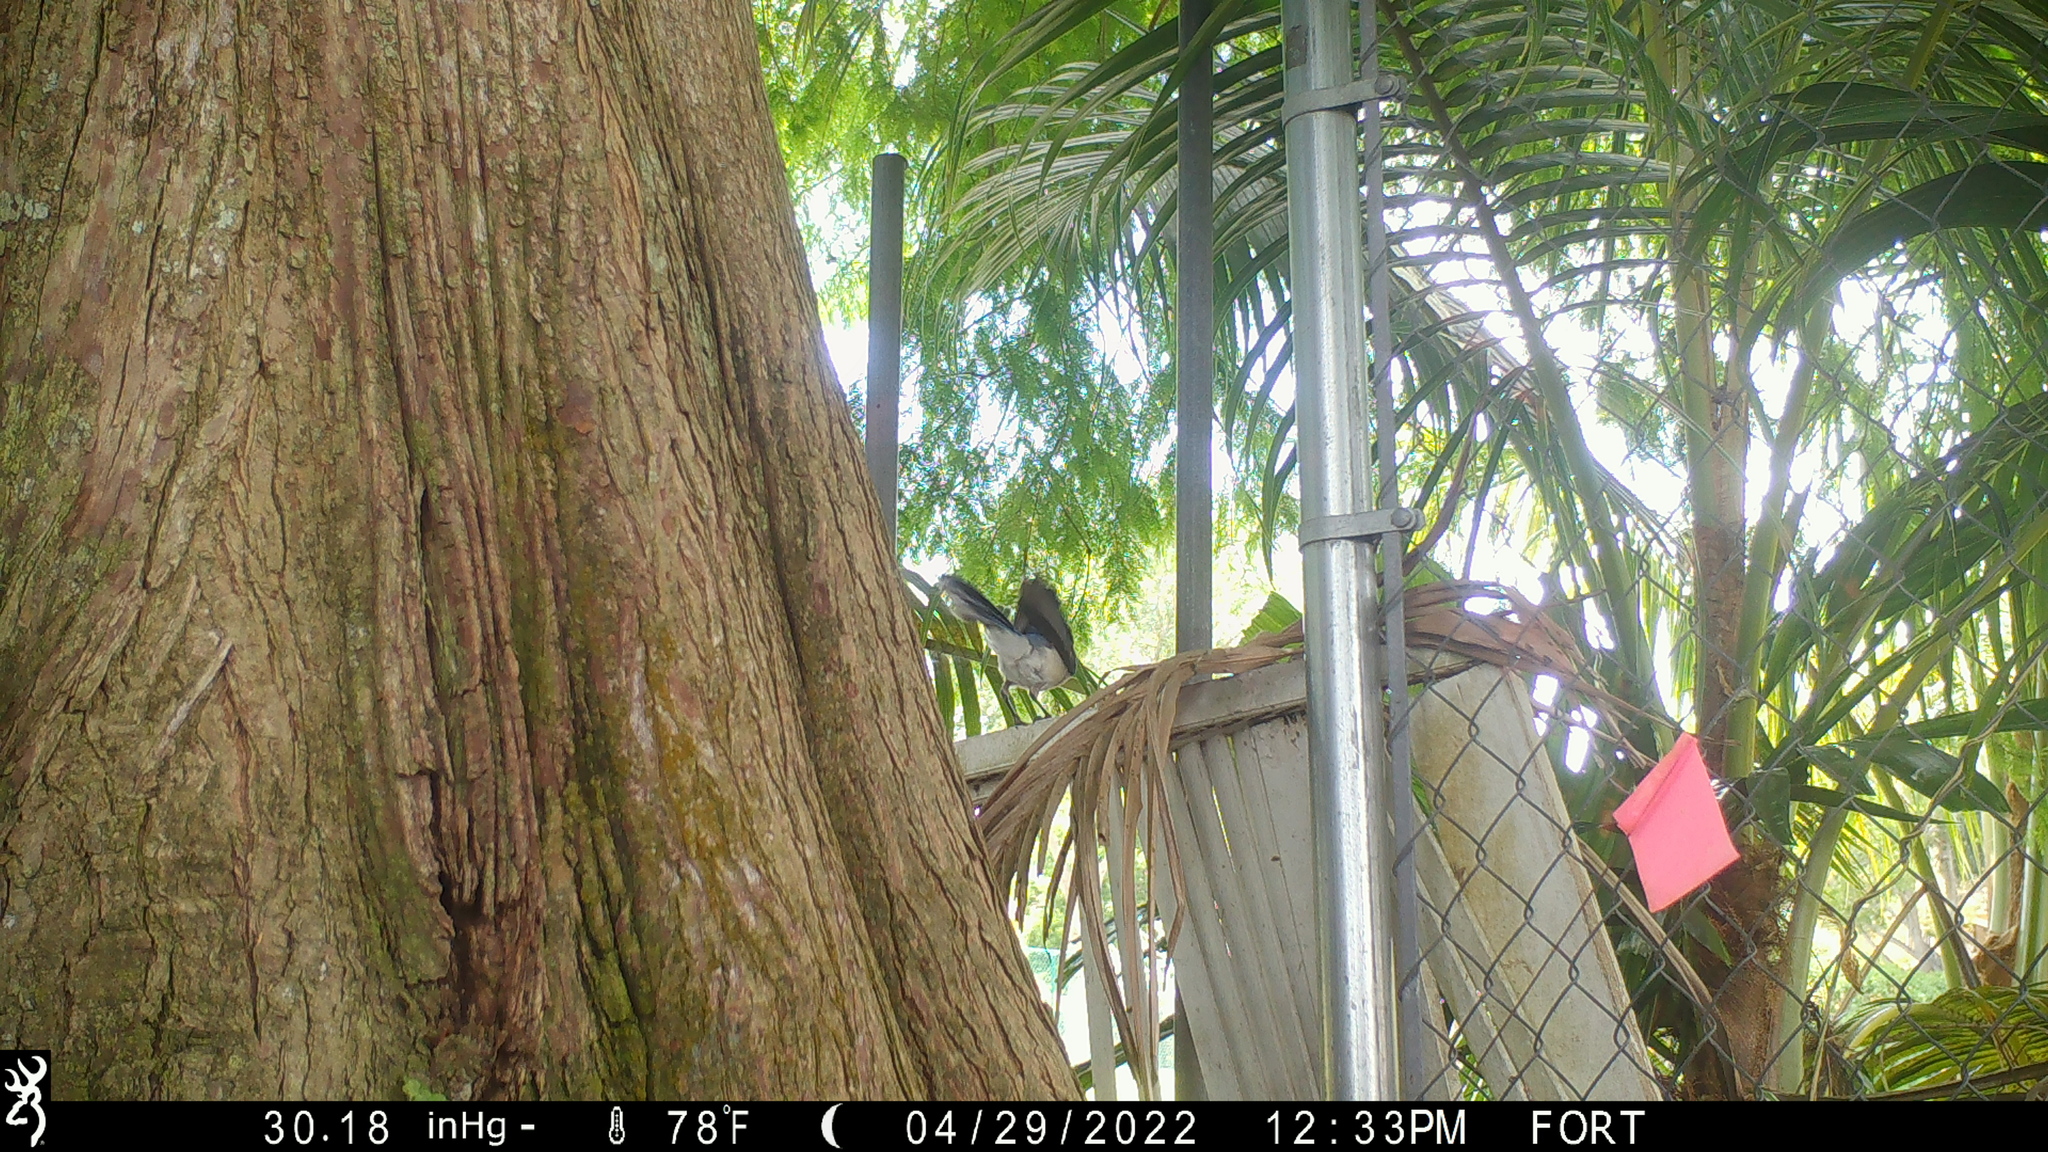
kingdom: Animalia
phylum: Chordata
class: Aves
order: Passeriformes
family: Corvidae
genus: Cyanocitta
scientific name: Cyanocitta cristata
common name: Blue jay
